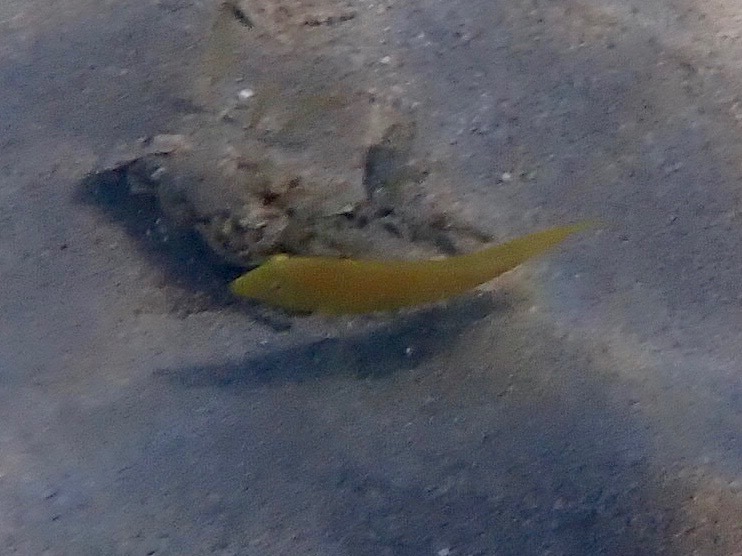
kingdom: Animalia
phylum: Chordata
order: Perciformes
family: Labridae
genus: Xyrichtys
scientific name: Xyrichtys splendens
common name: Green razorfish
